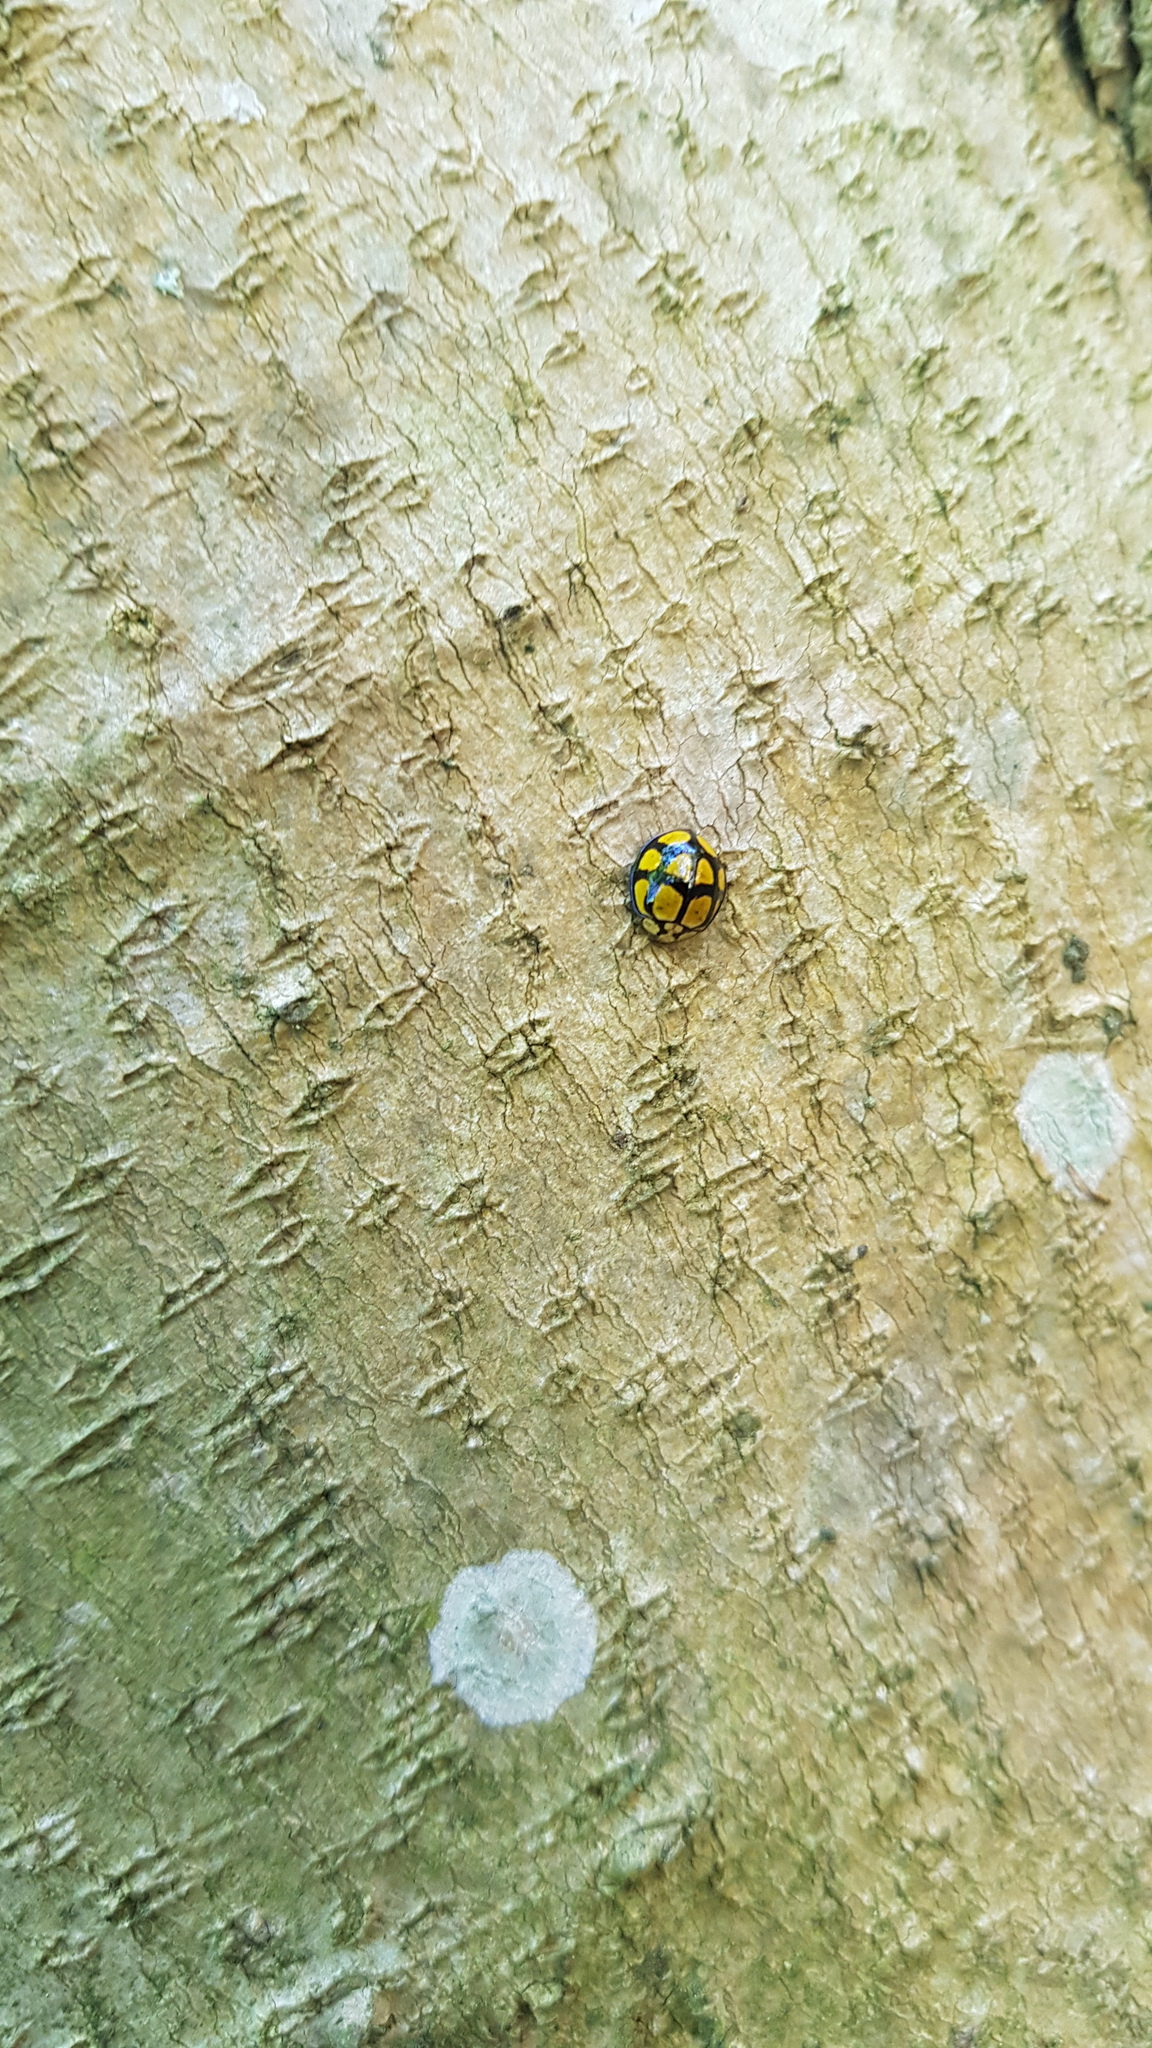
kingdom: Animalia
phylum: Arthropoda
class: Insecta
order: Coleoptera
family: Coccinellidae
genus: Harmonia
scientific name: Harmonia
